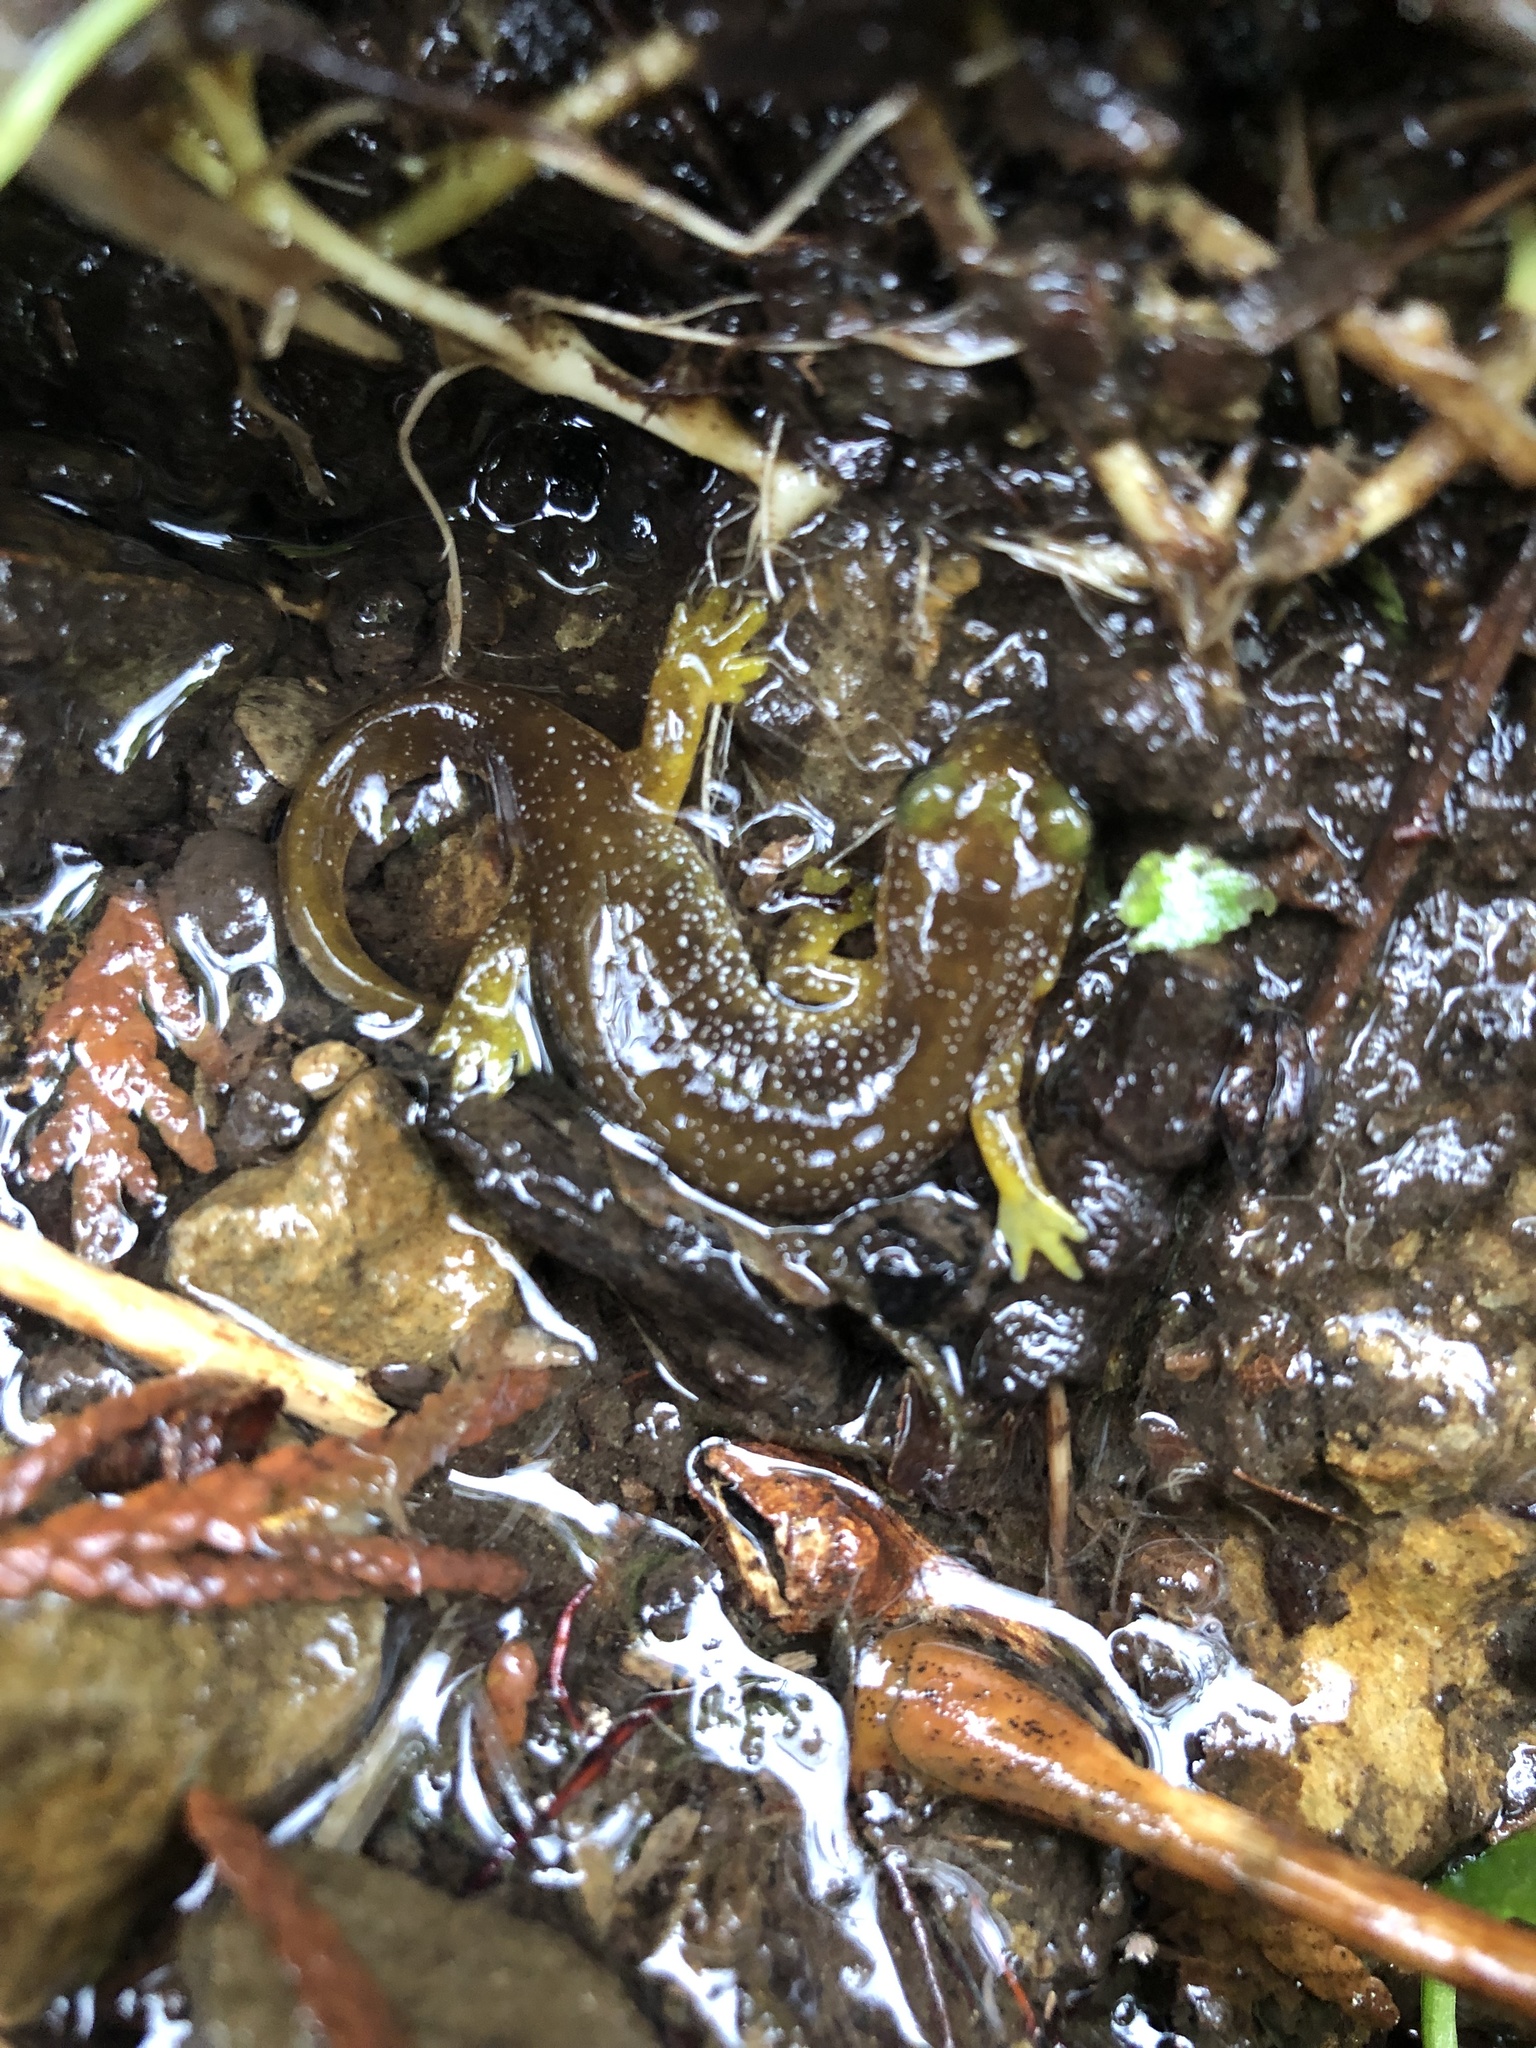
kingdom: Animalia
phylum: Chordata
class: Amphibia
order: Caudata
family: Rhyacotritonidae
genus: Rhyacotriton
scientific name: Rhyacotriton kezeri
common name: Columbia torrent salamander
